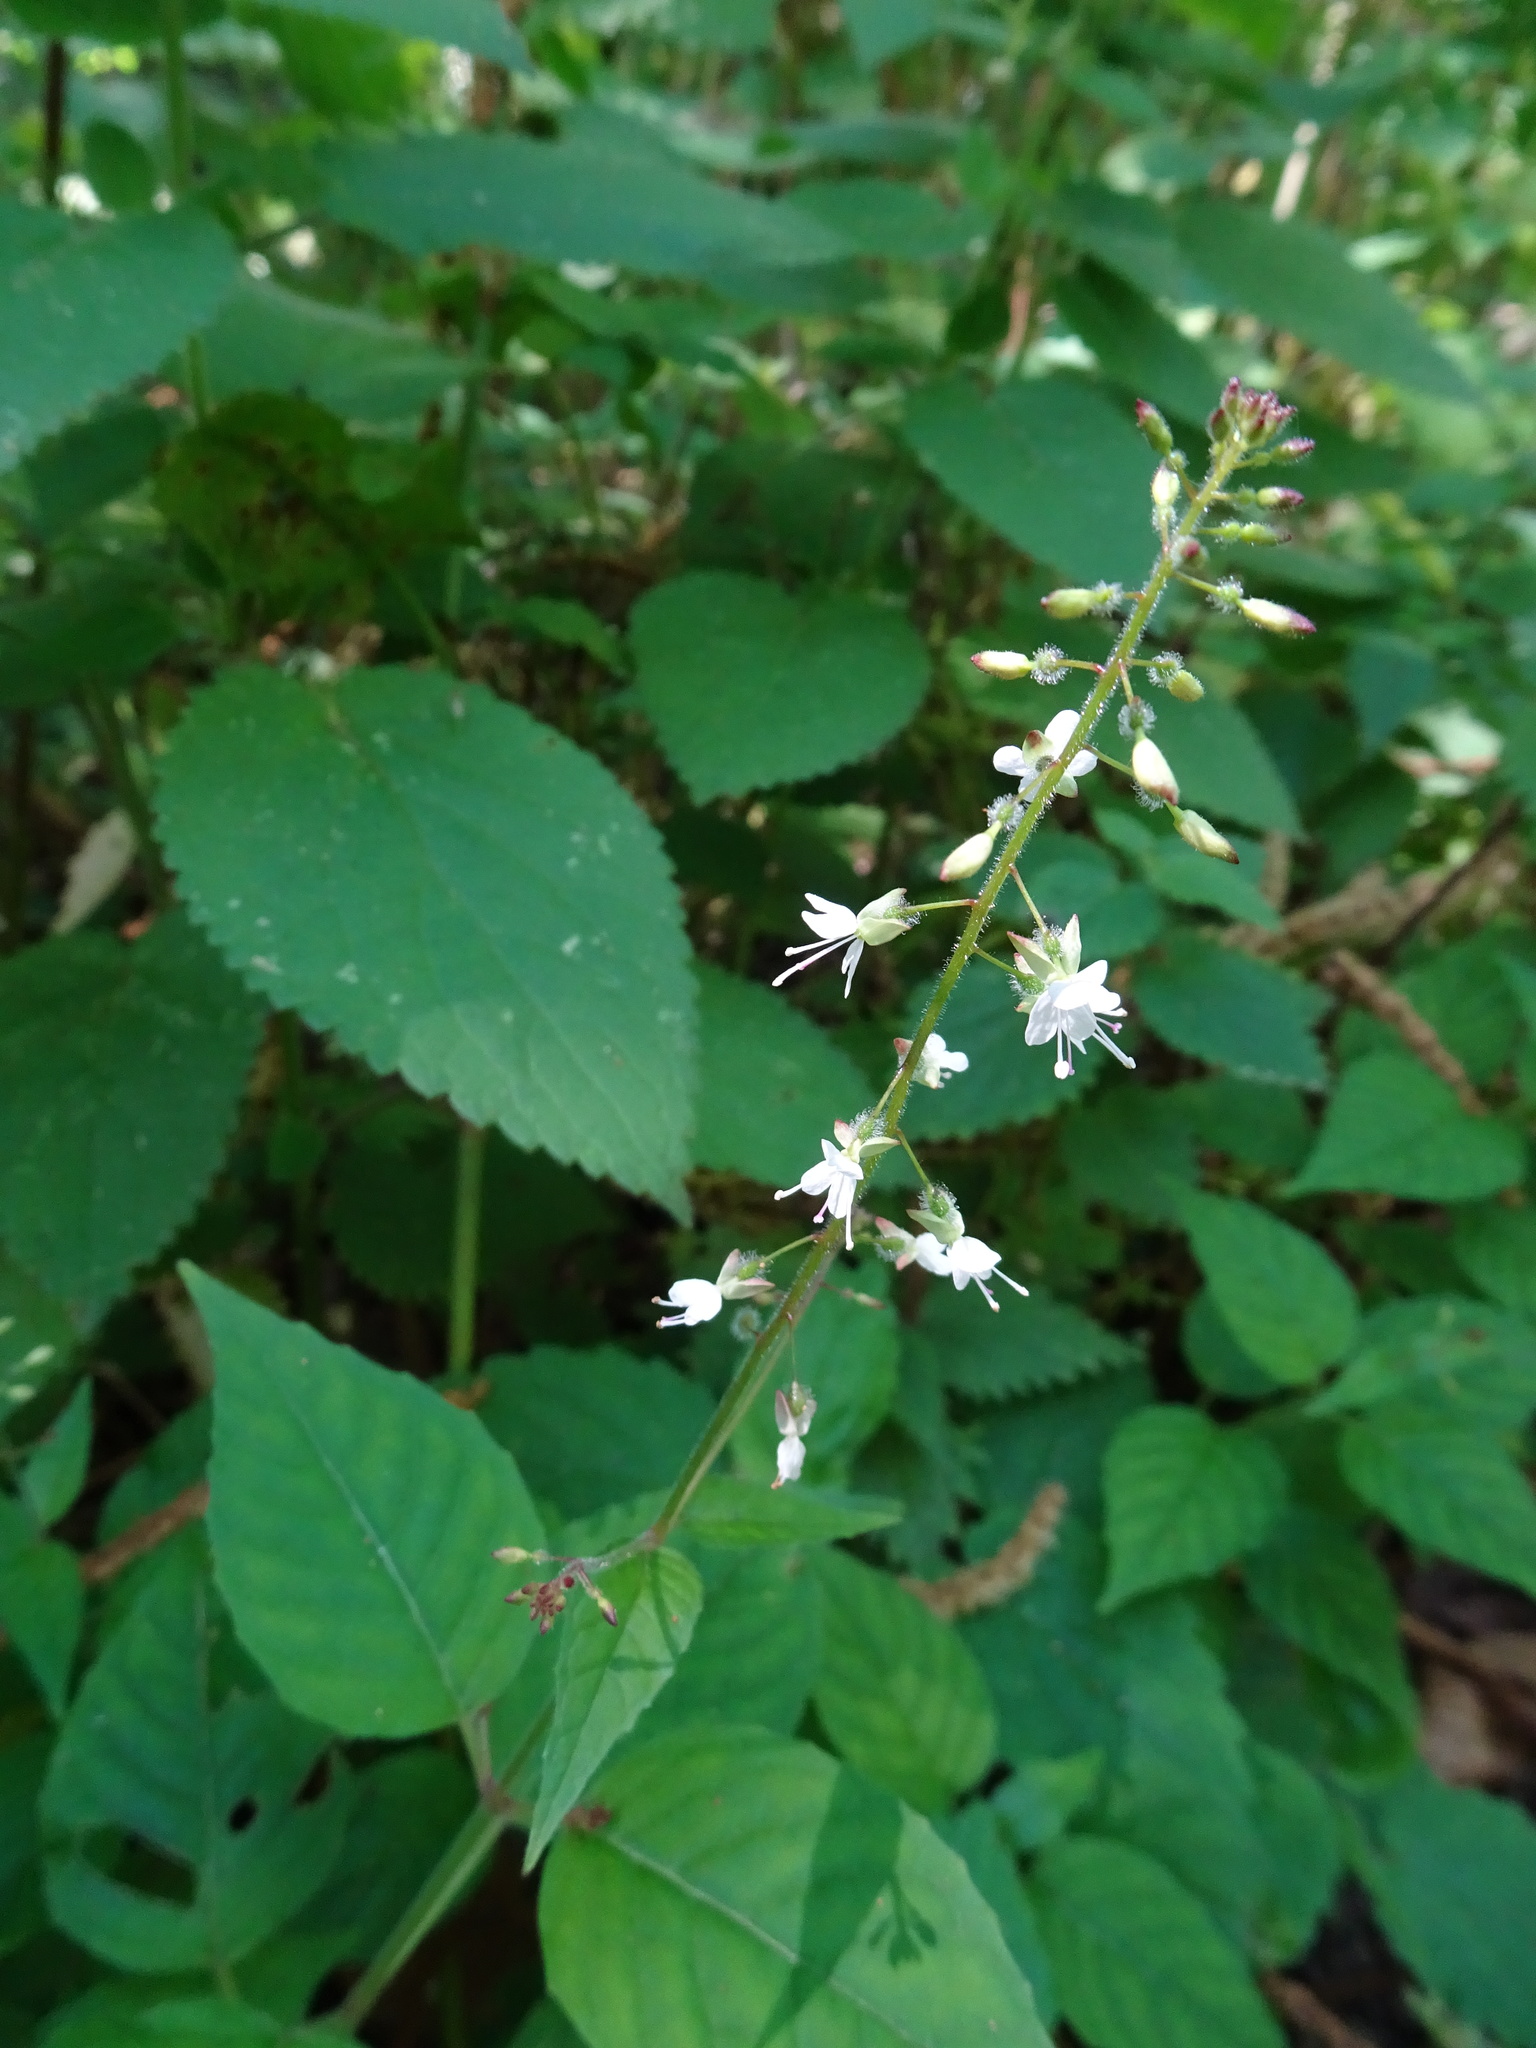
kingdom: Plantae
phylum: Tracheophyta
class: Magnoliopsida
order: Myrtales
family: Onagraceae
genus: Circaea
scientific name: Circaea lutetiana
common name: Enchanter's-nightshade
